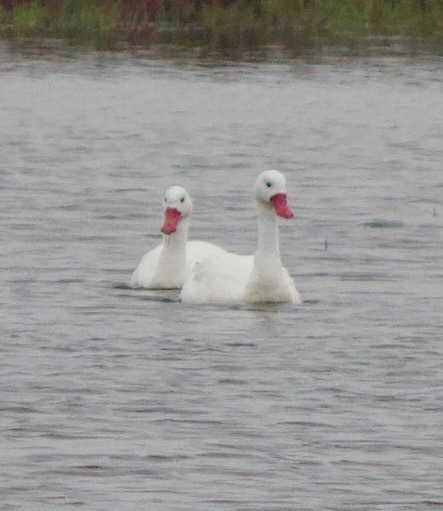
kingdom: Animalia
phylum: Chordata
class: Aves
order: Anseriformes
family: Anatidae
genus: Coscoroba
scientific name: Coscoroba coscoroba
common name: Coscoroba swan
